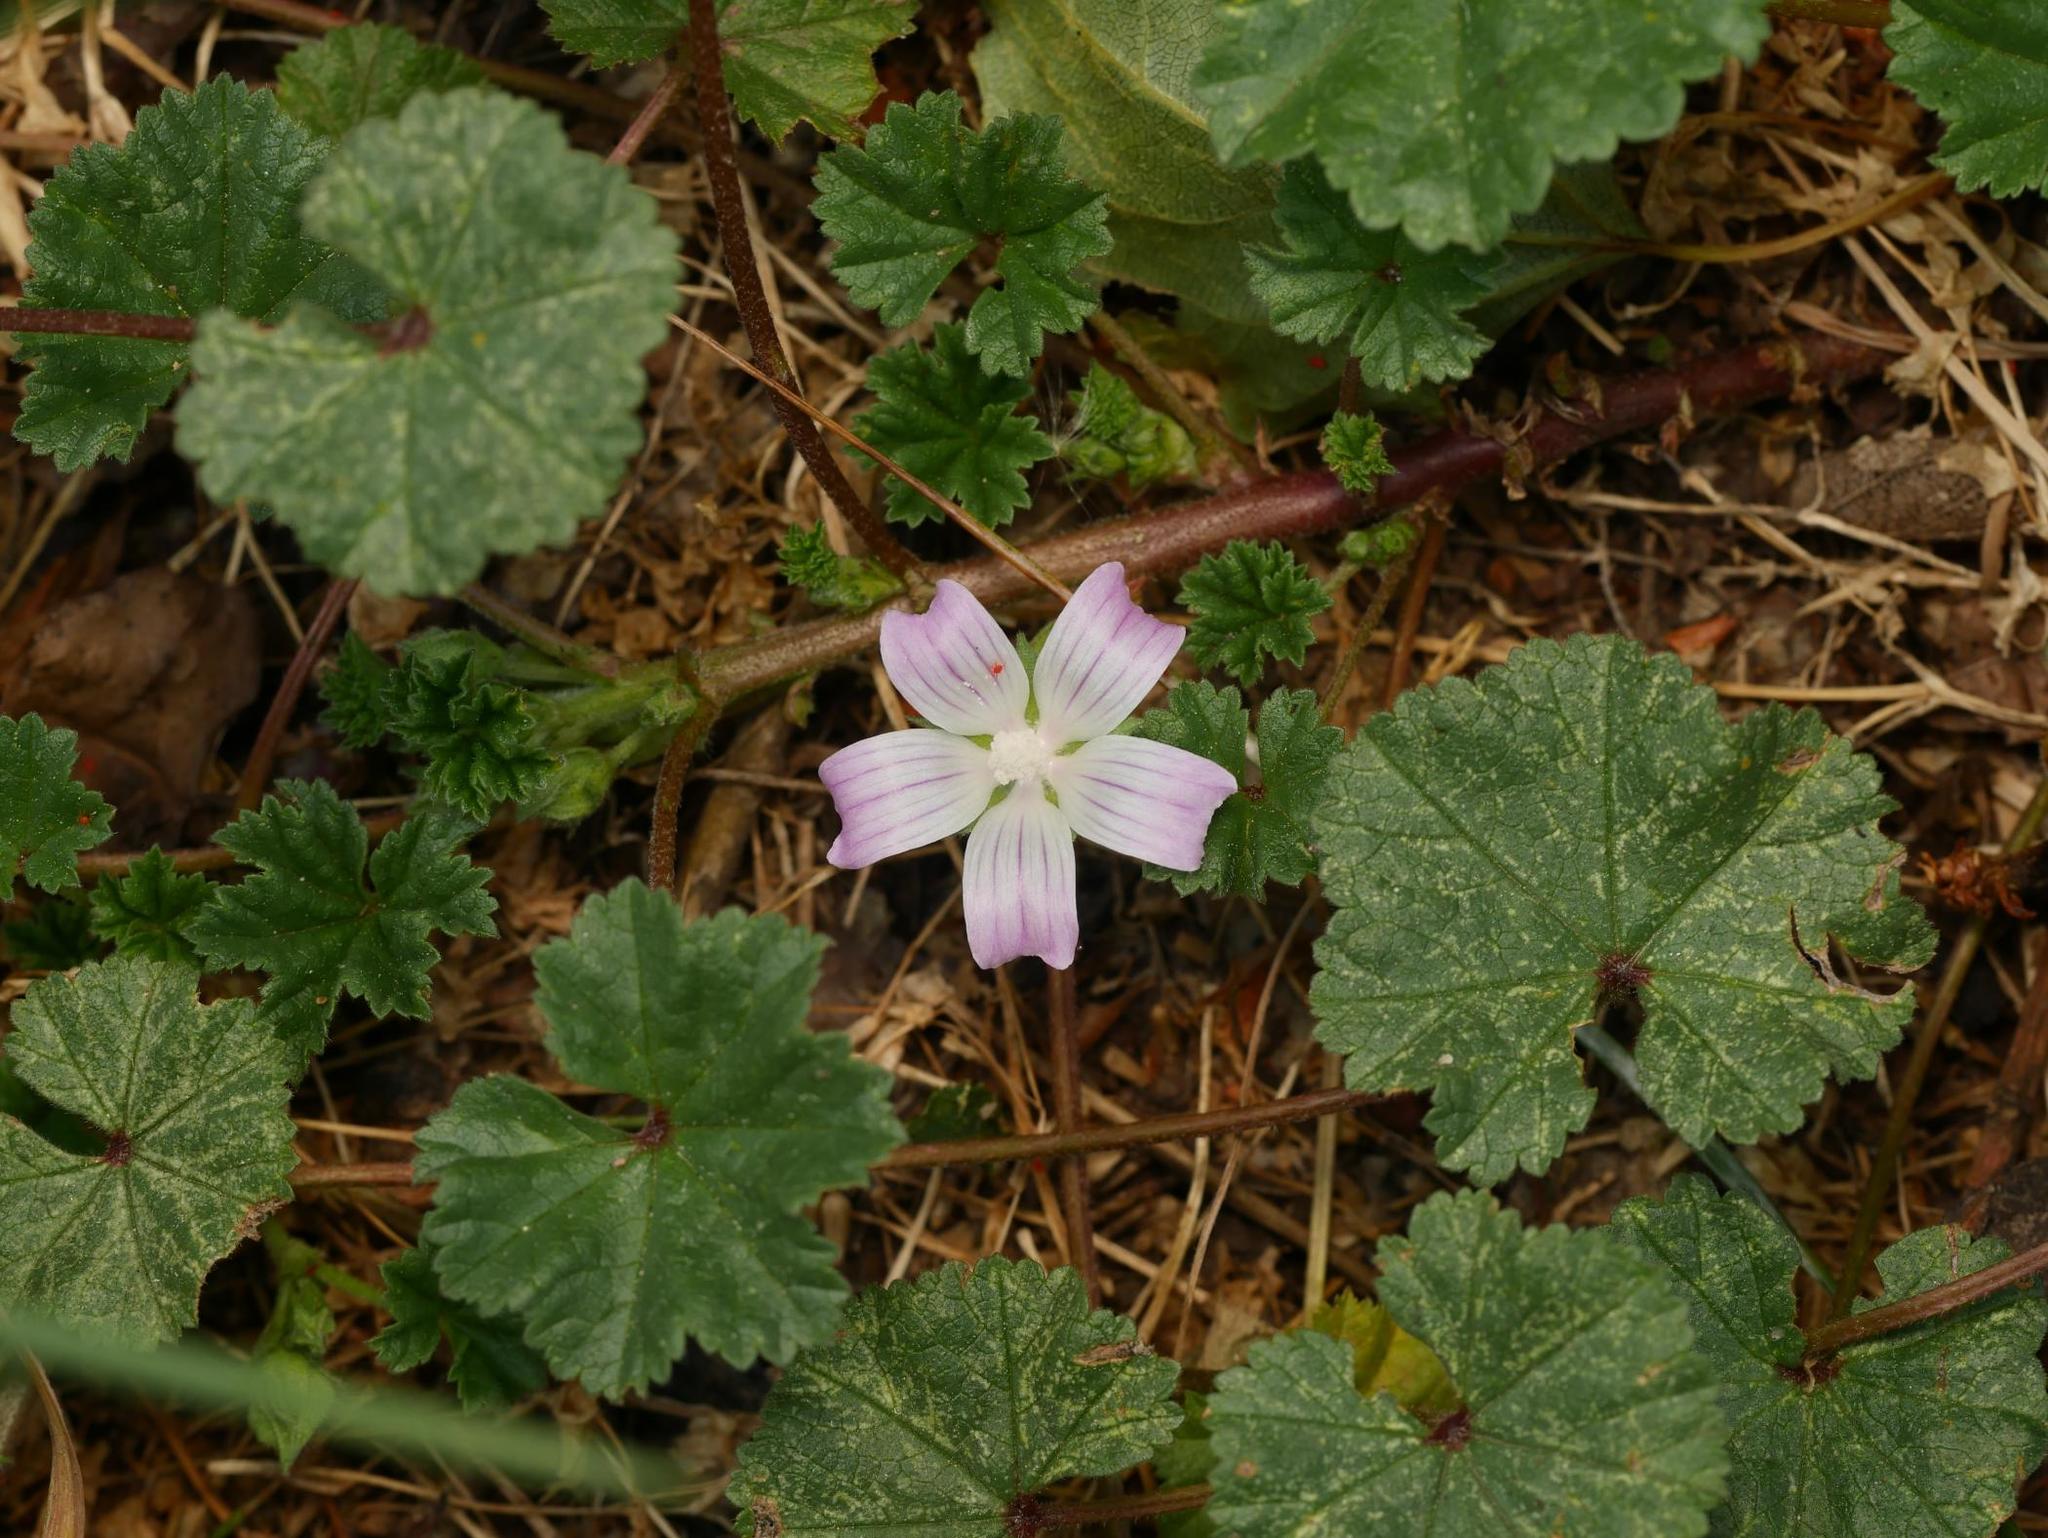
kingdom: Plantae
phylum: Tracheophyta
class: Magnoliopsida
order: Malvales
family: Malvaceae
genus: Malva
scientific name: Malva neglecta
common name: Common mallow
